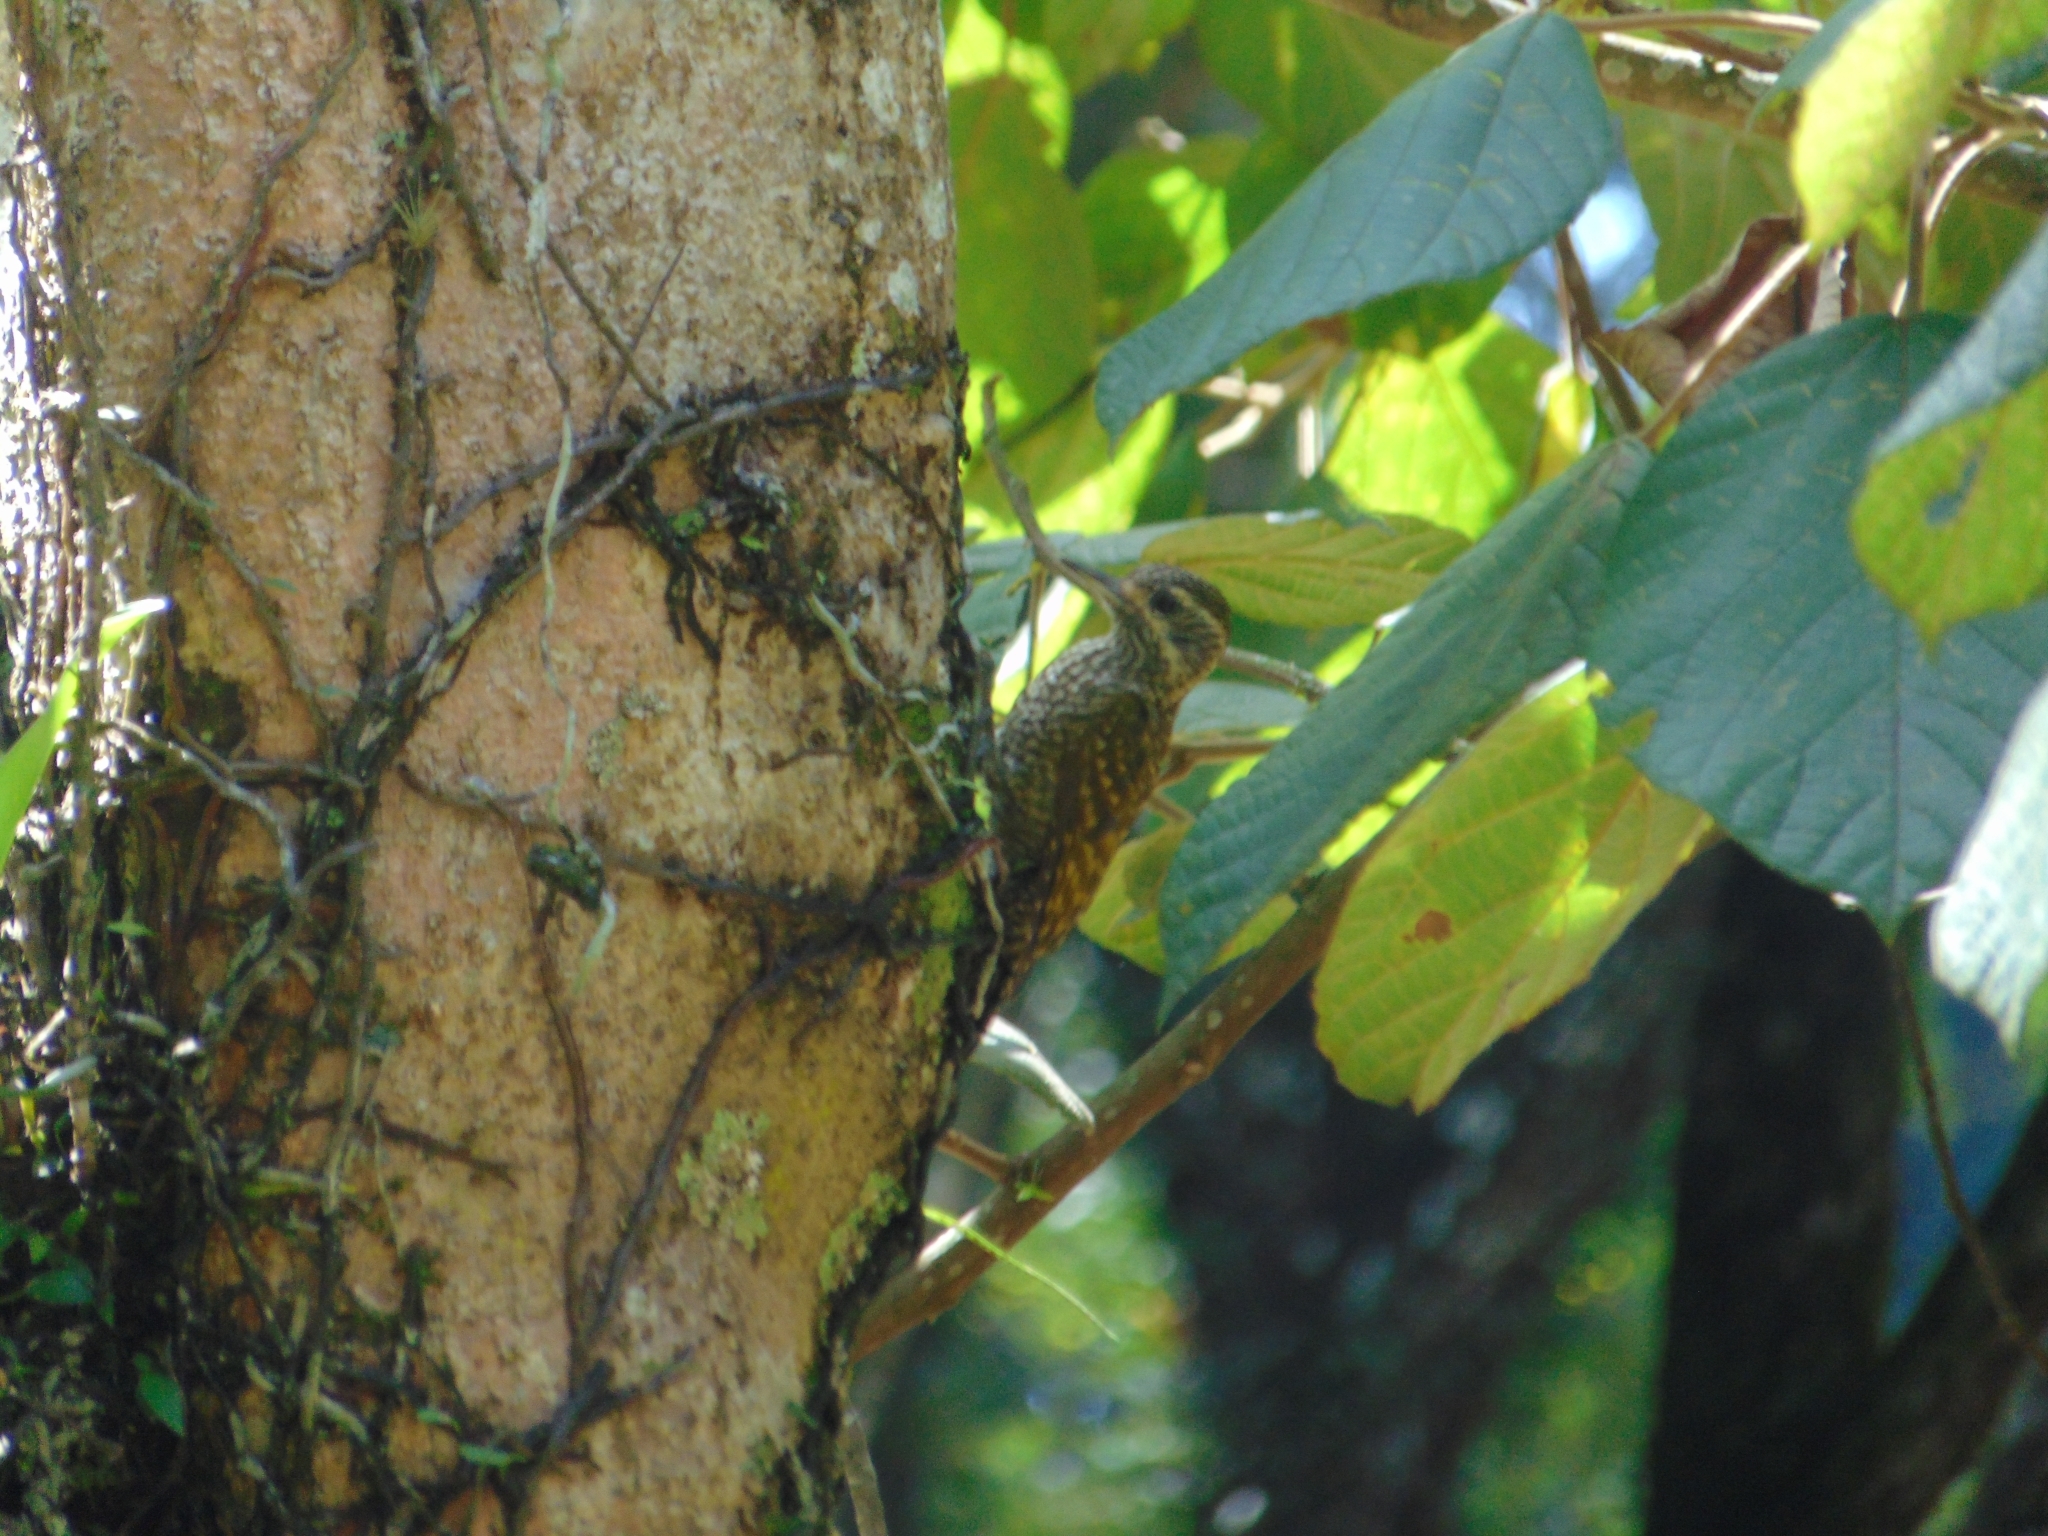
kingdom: Animalia
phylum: Chordata
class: Aves
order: Piciformes
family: Picidae
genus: Veniliornis
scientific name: Veniliornis spilogaster
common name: White-spotted woodpecker
